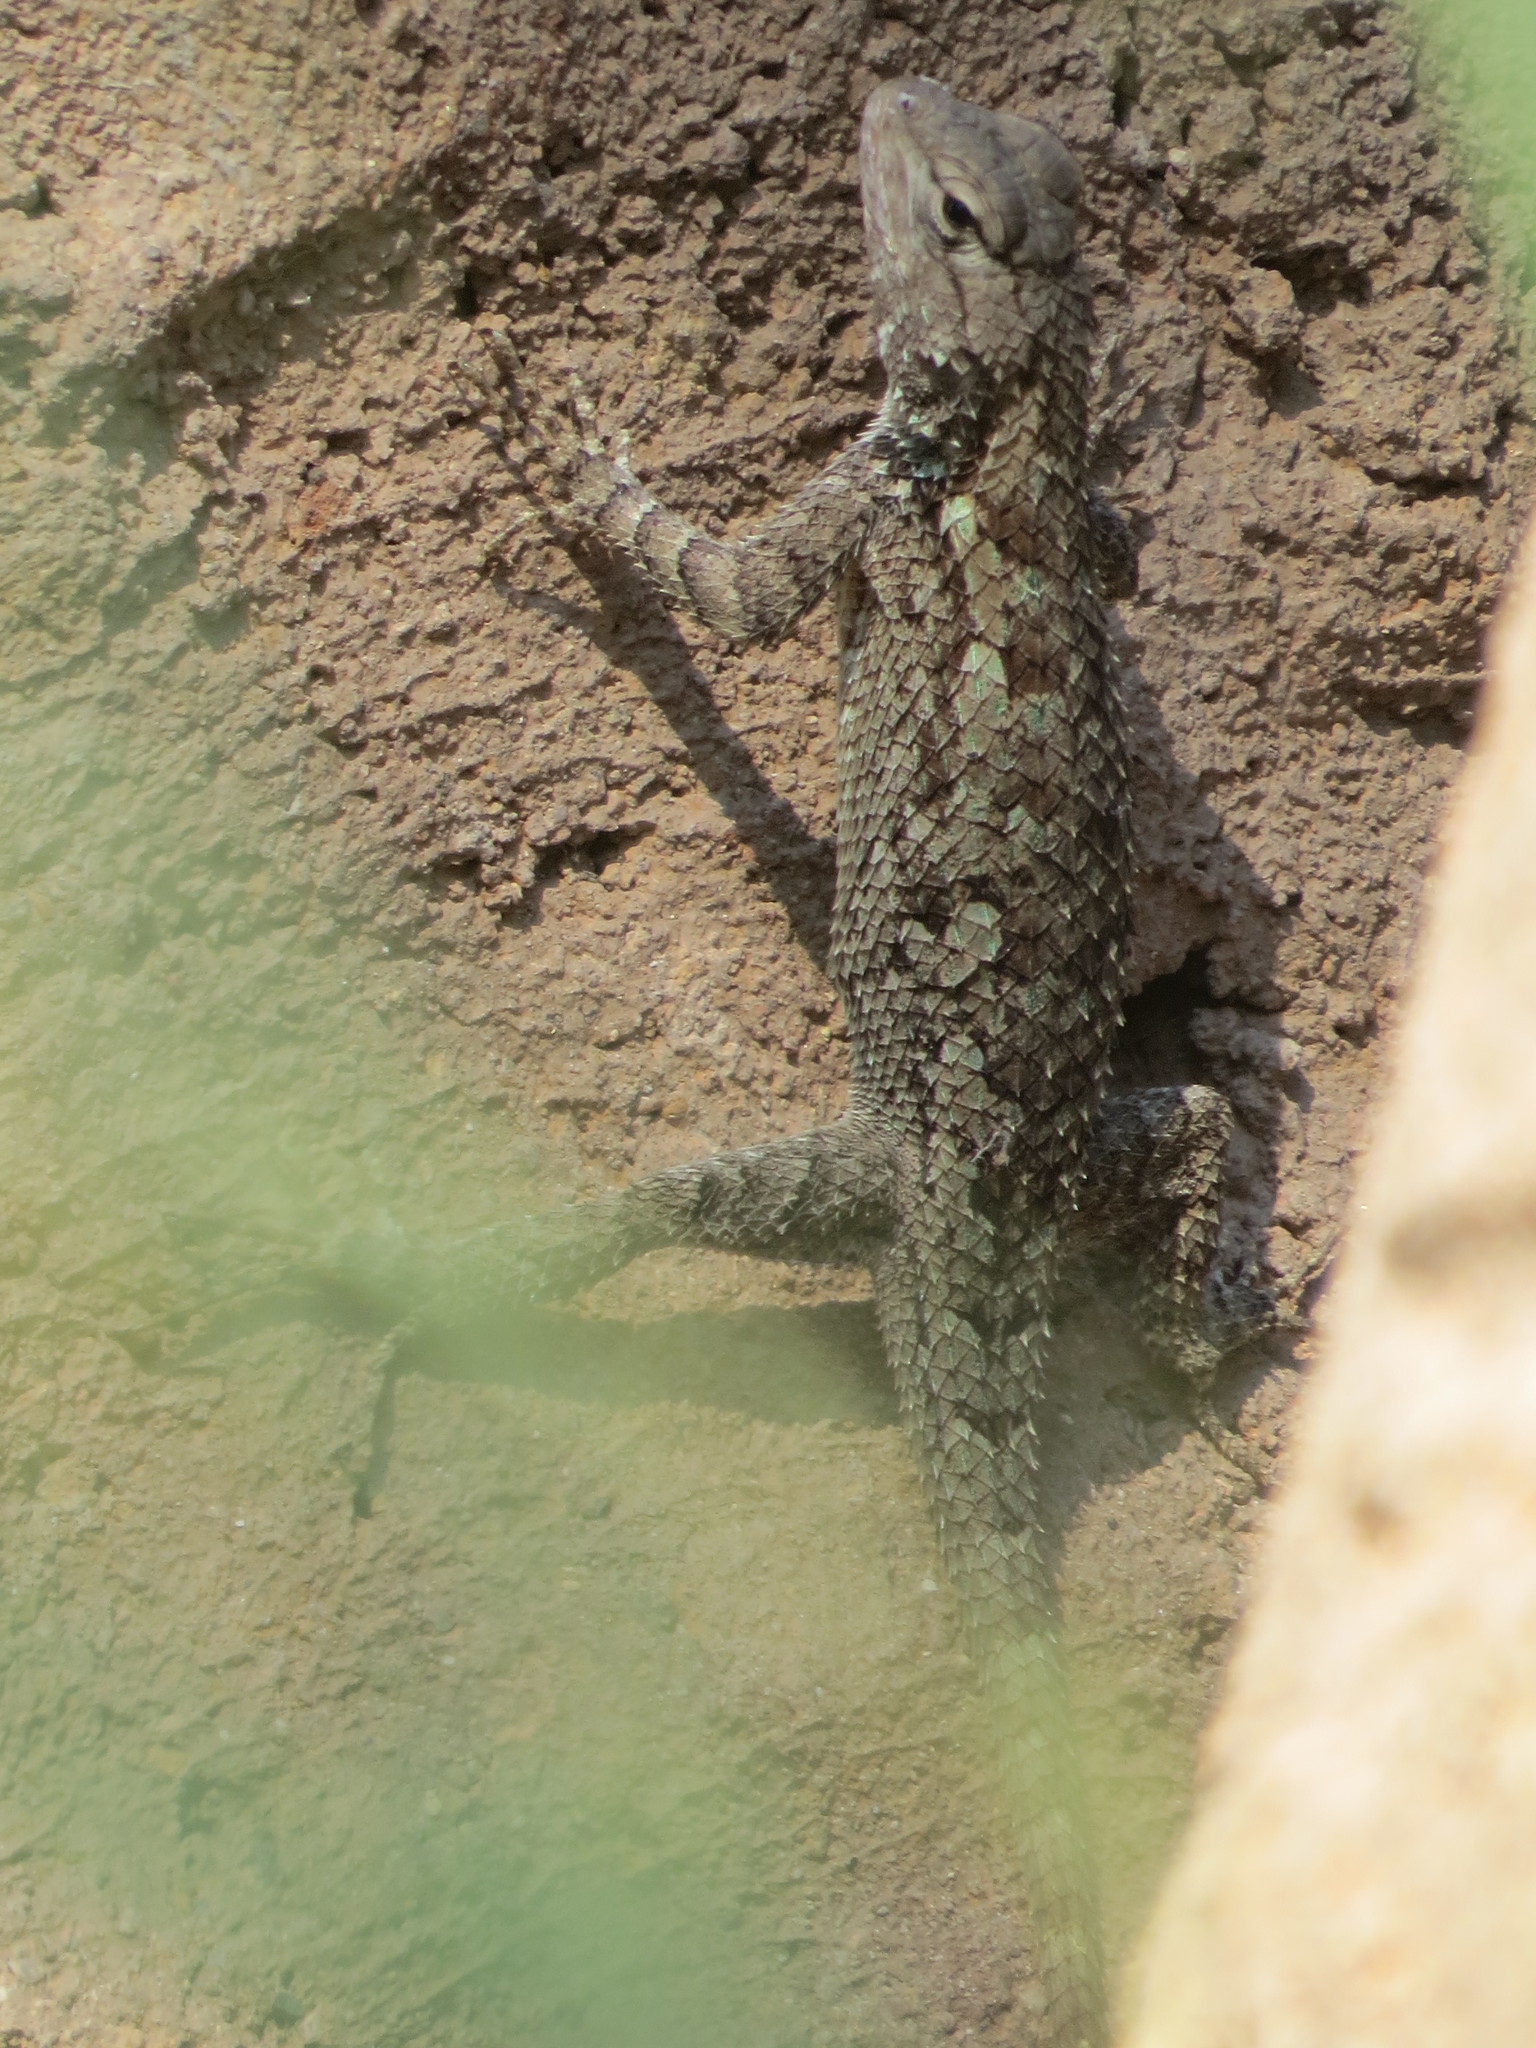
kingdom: Animalia
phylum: Chordata
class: Squamata
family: Phrynosomatidae
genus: Sceloporus
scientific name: Sceloporus clarkii
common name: Clark's spiny lizard
